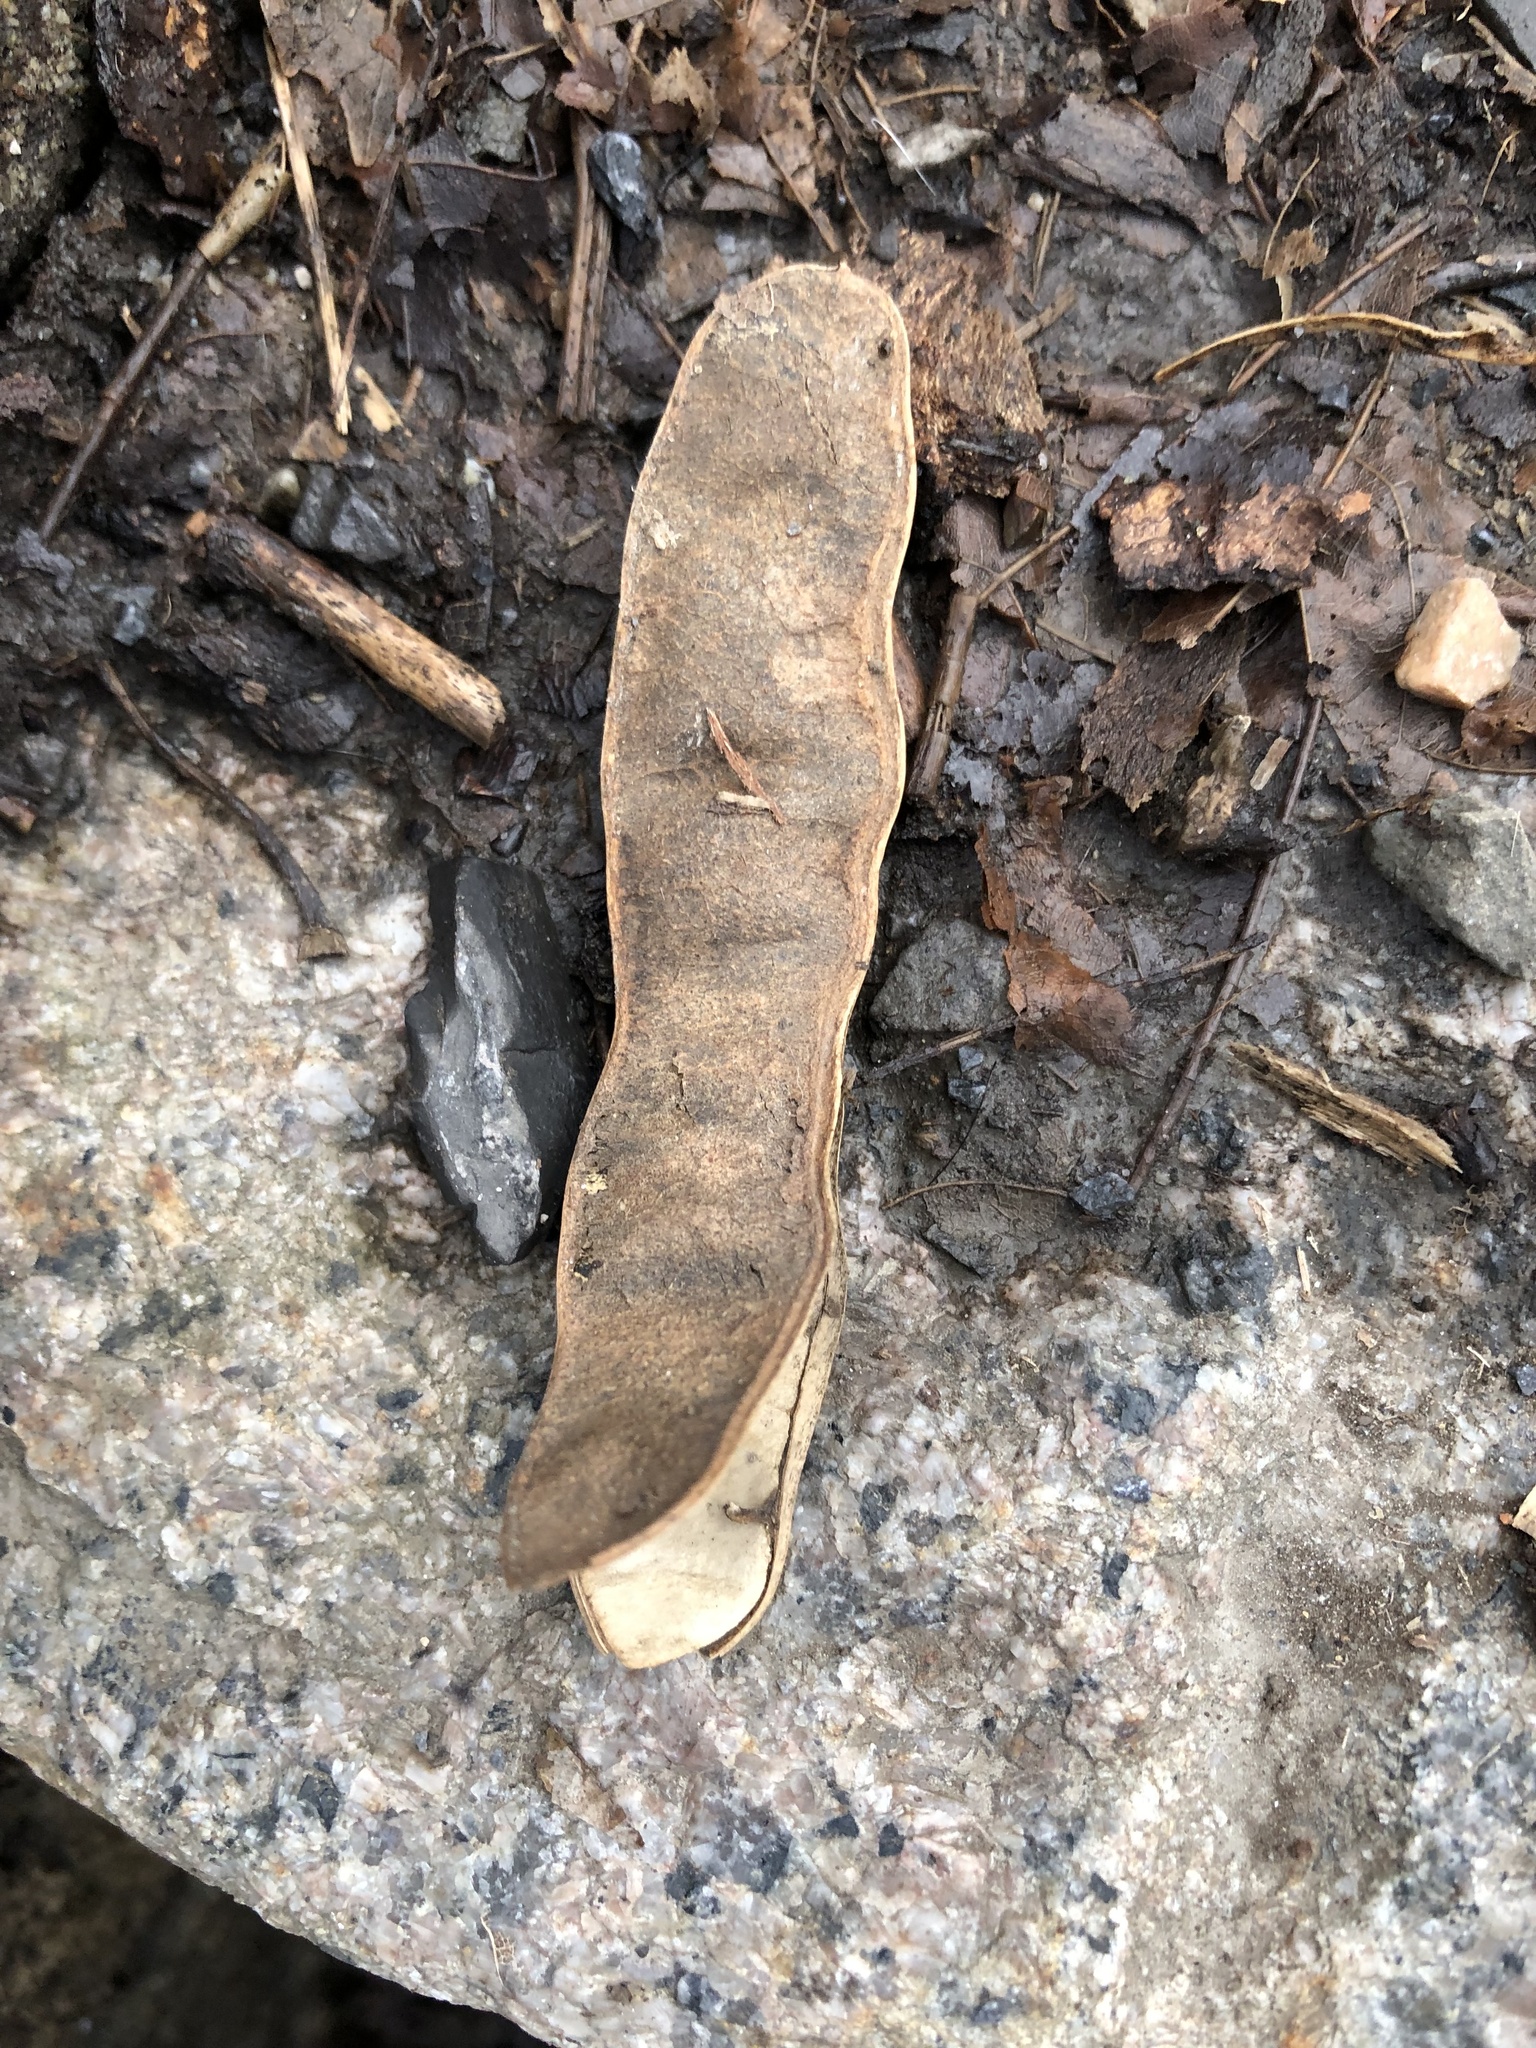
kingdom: Plantae
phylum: Tracheophyta
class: Magnoliopsida
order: Fabales
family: Fabaceae
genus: Robinia
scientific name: Robinia pseudoacacia
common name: Black locust
